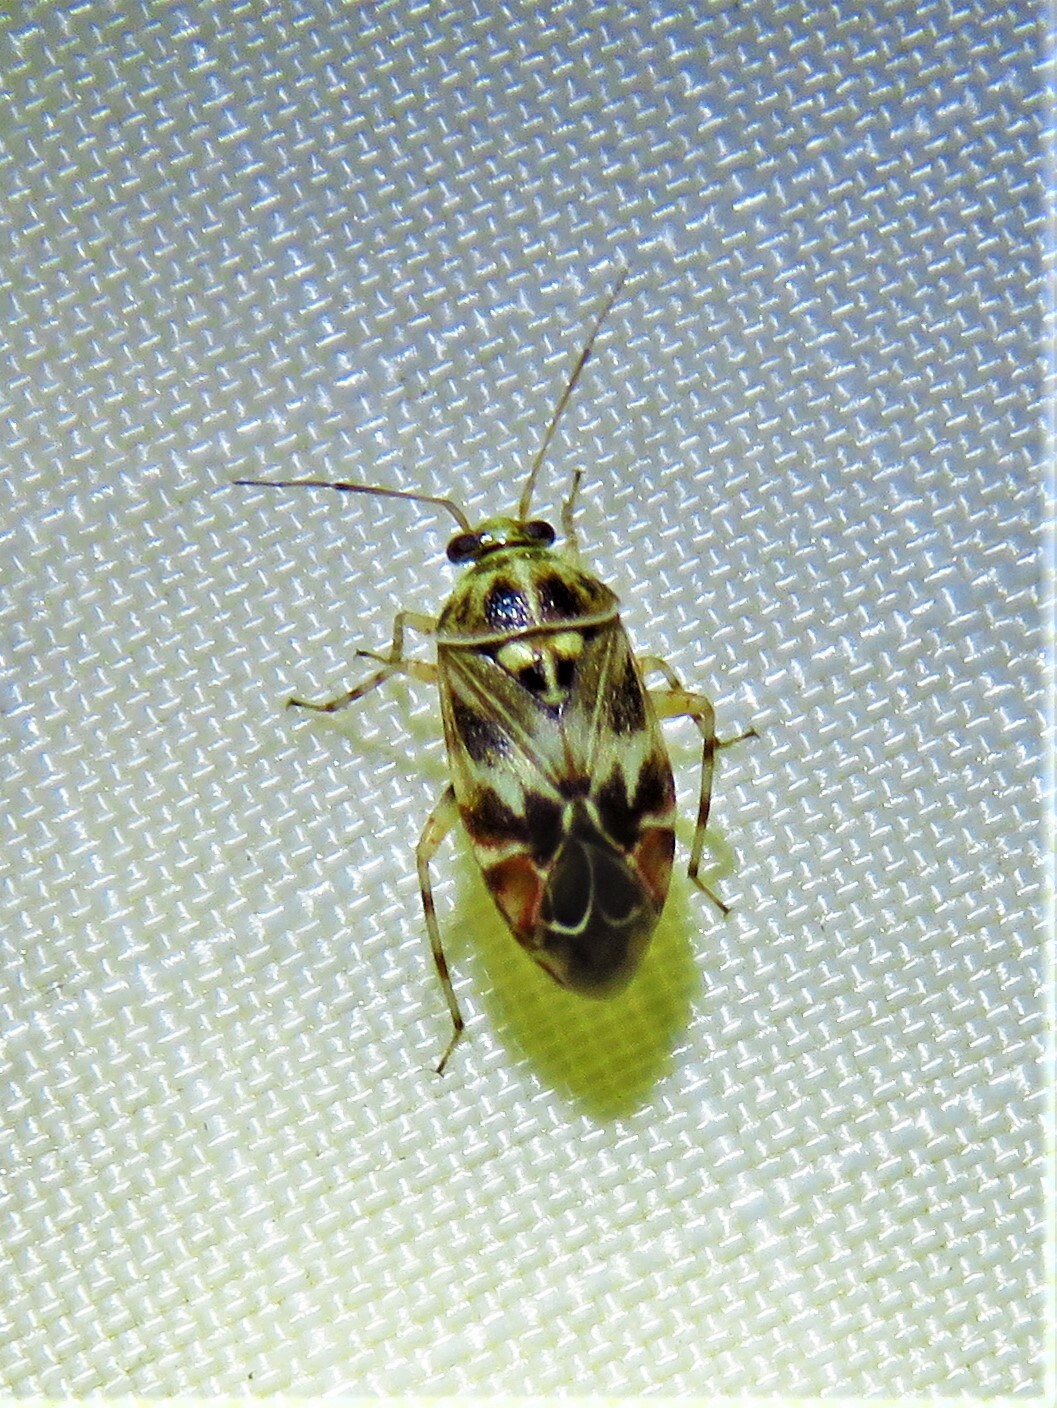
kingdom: Animalia
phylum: Arthropoda
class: Insecta
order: Hemiptera
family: Miridae
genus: Tropidosteptes
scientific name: Tropidosteptes quercicola
